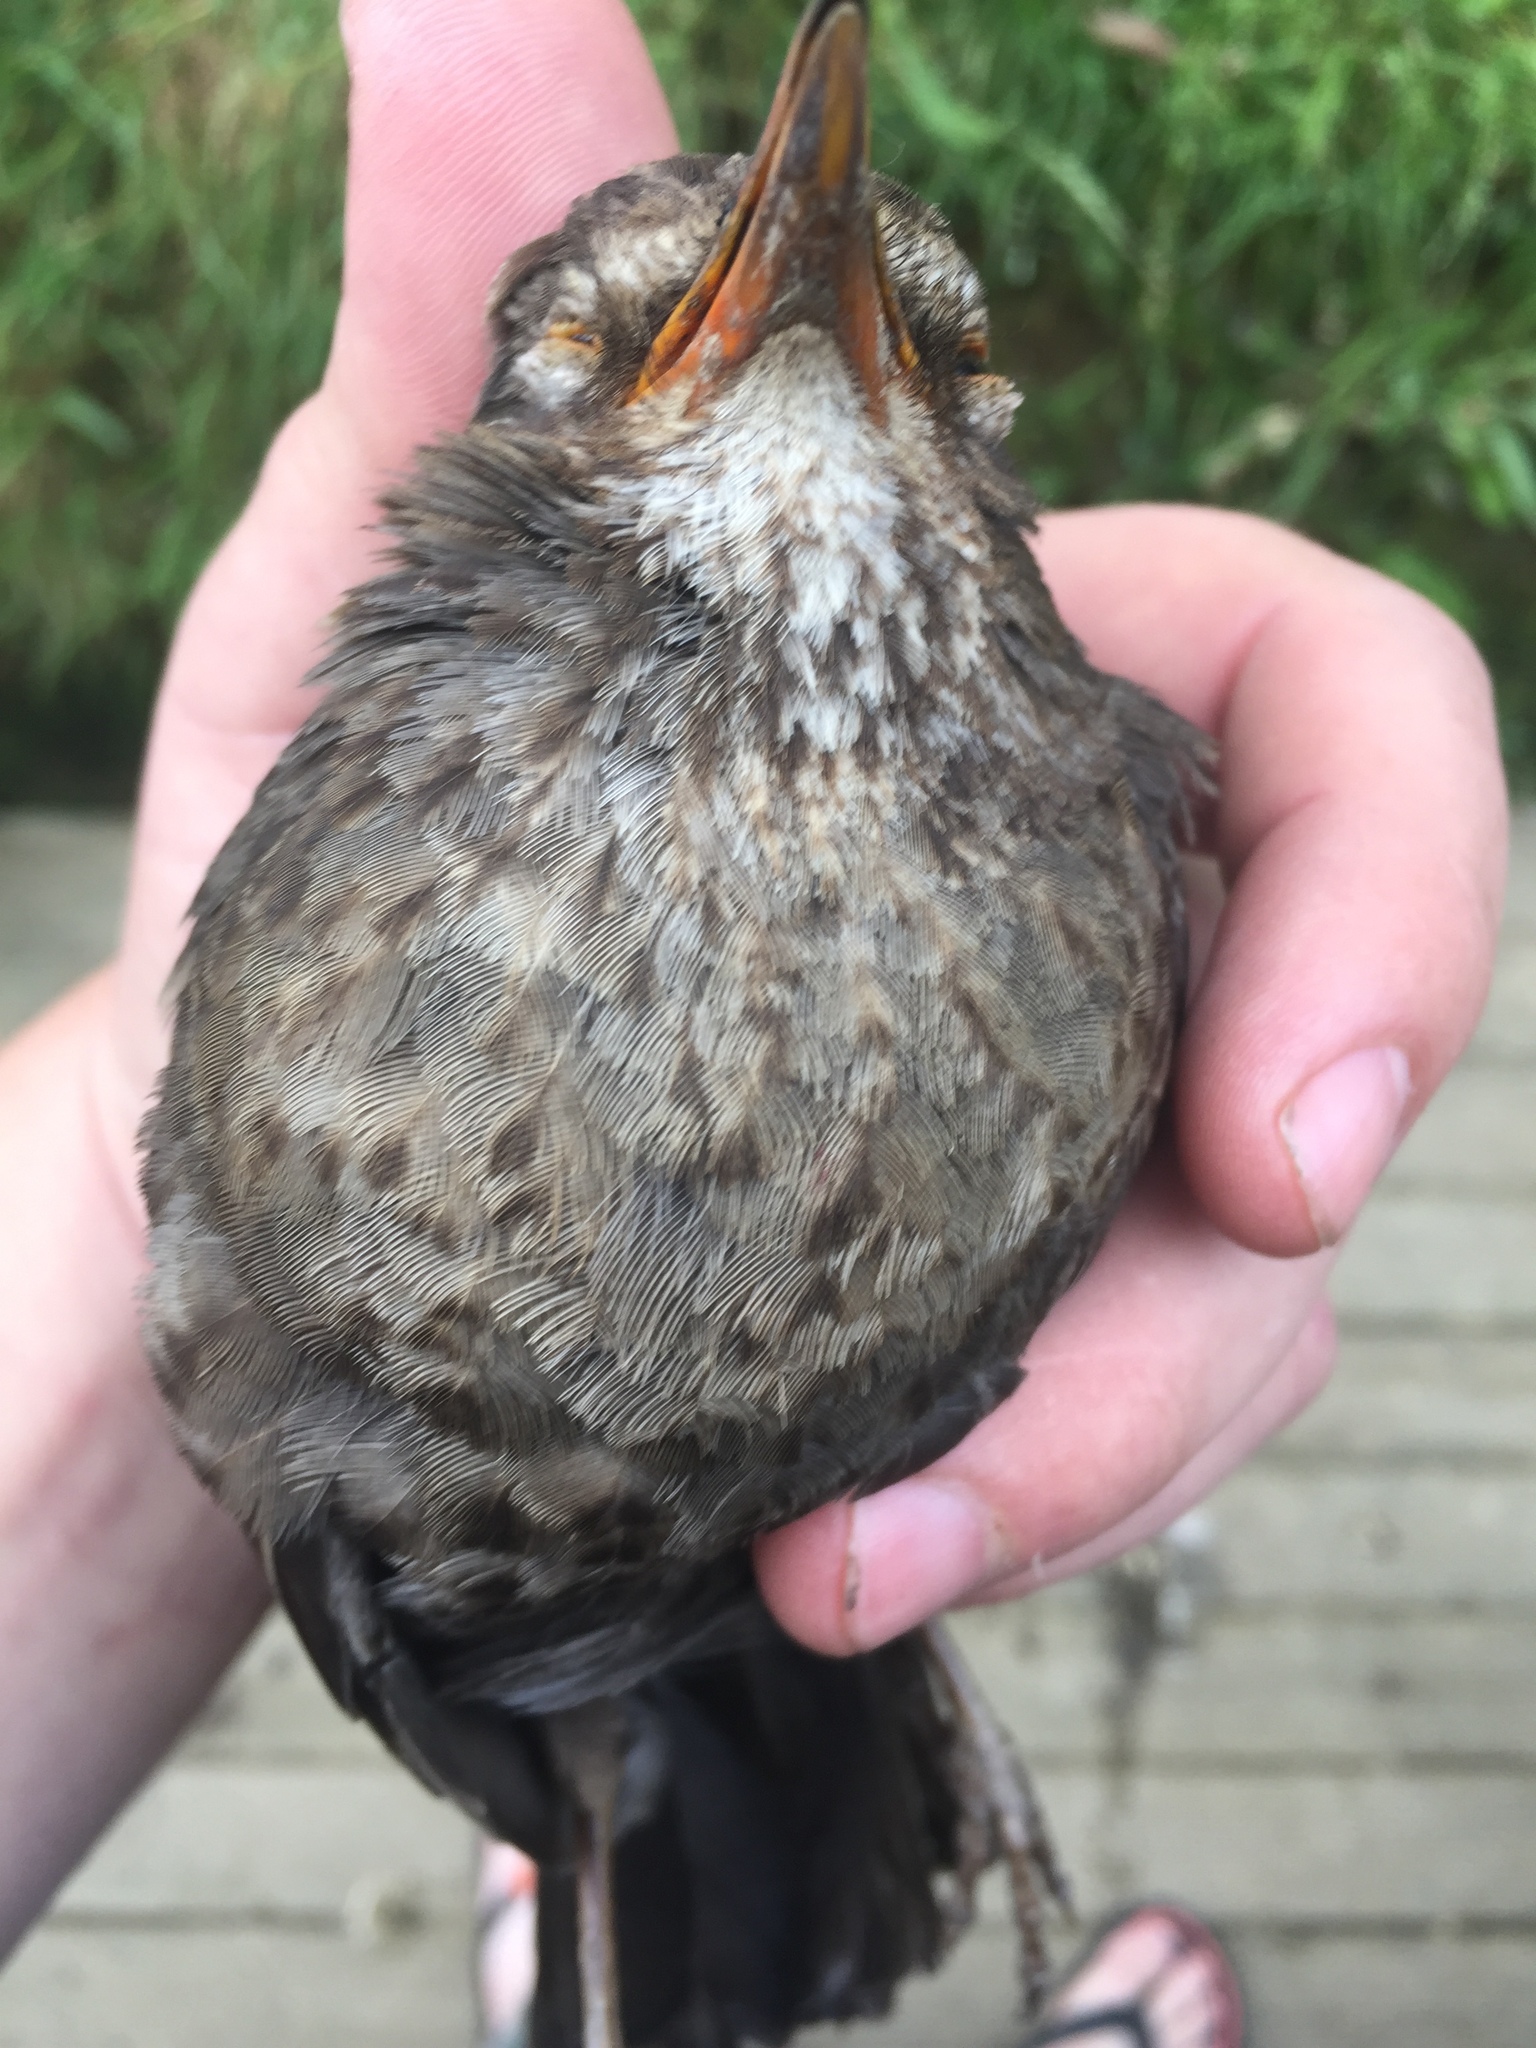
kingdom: Animalia
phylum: Chordata
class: Aves
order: Passeriformes
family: Turdidae
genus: Turdus
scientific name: Turdus merula
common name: Common blackbird
